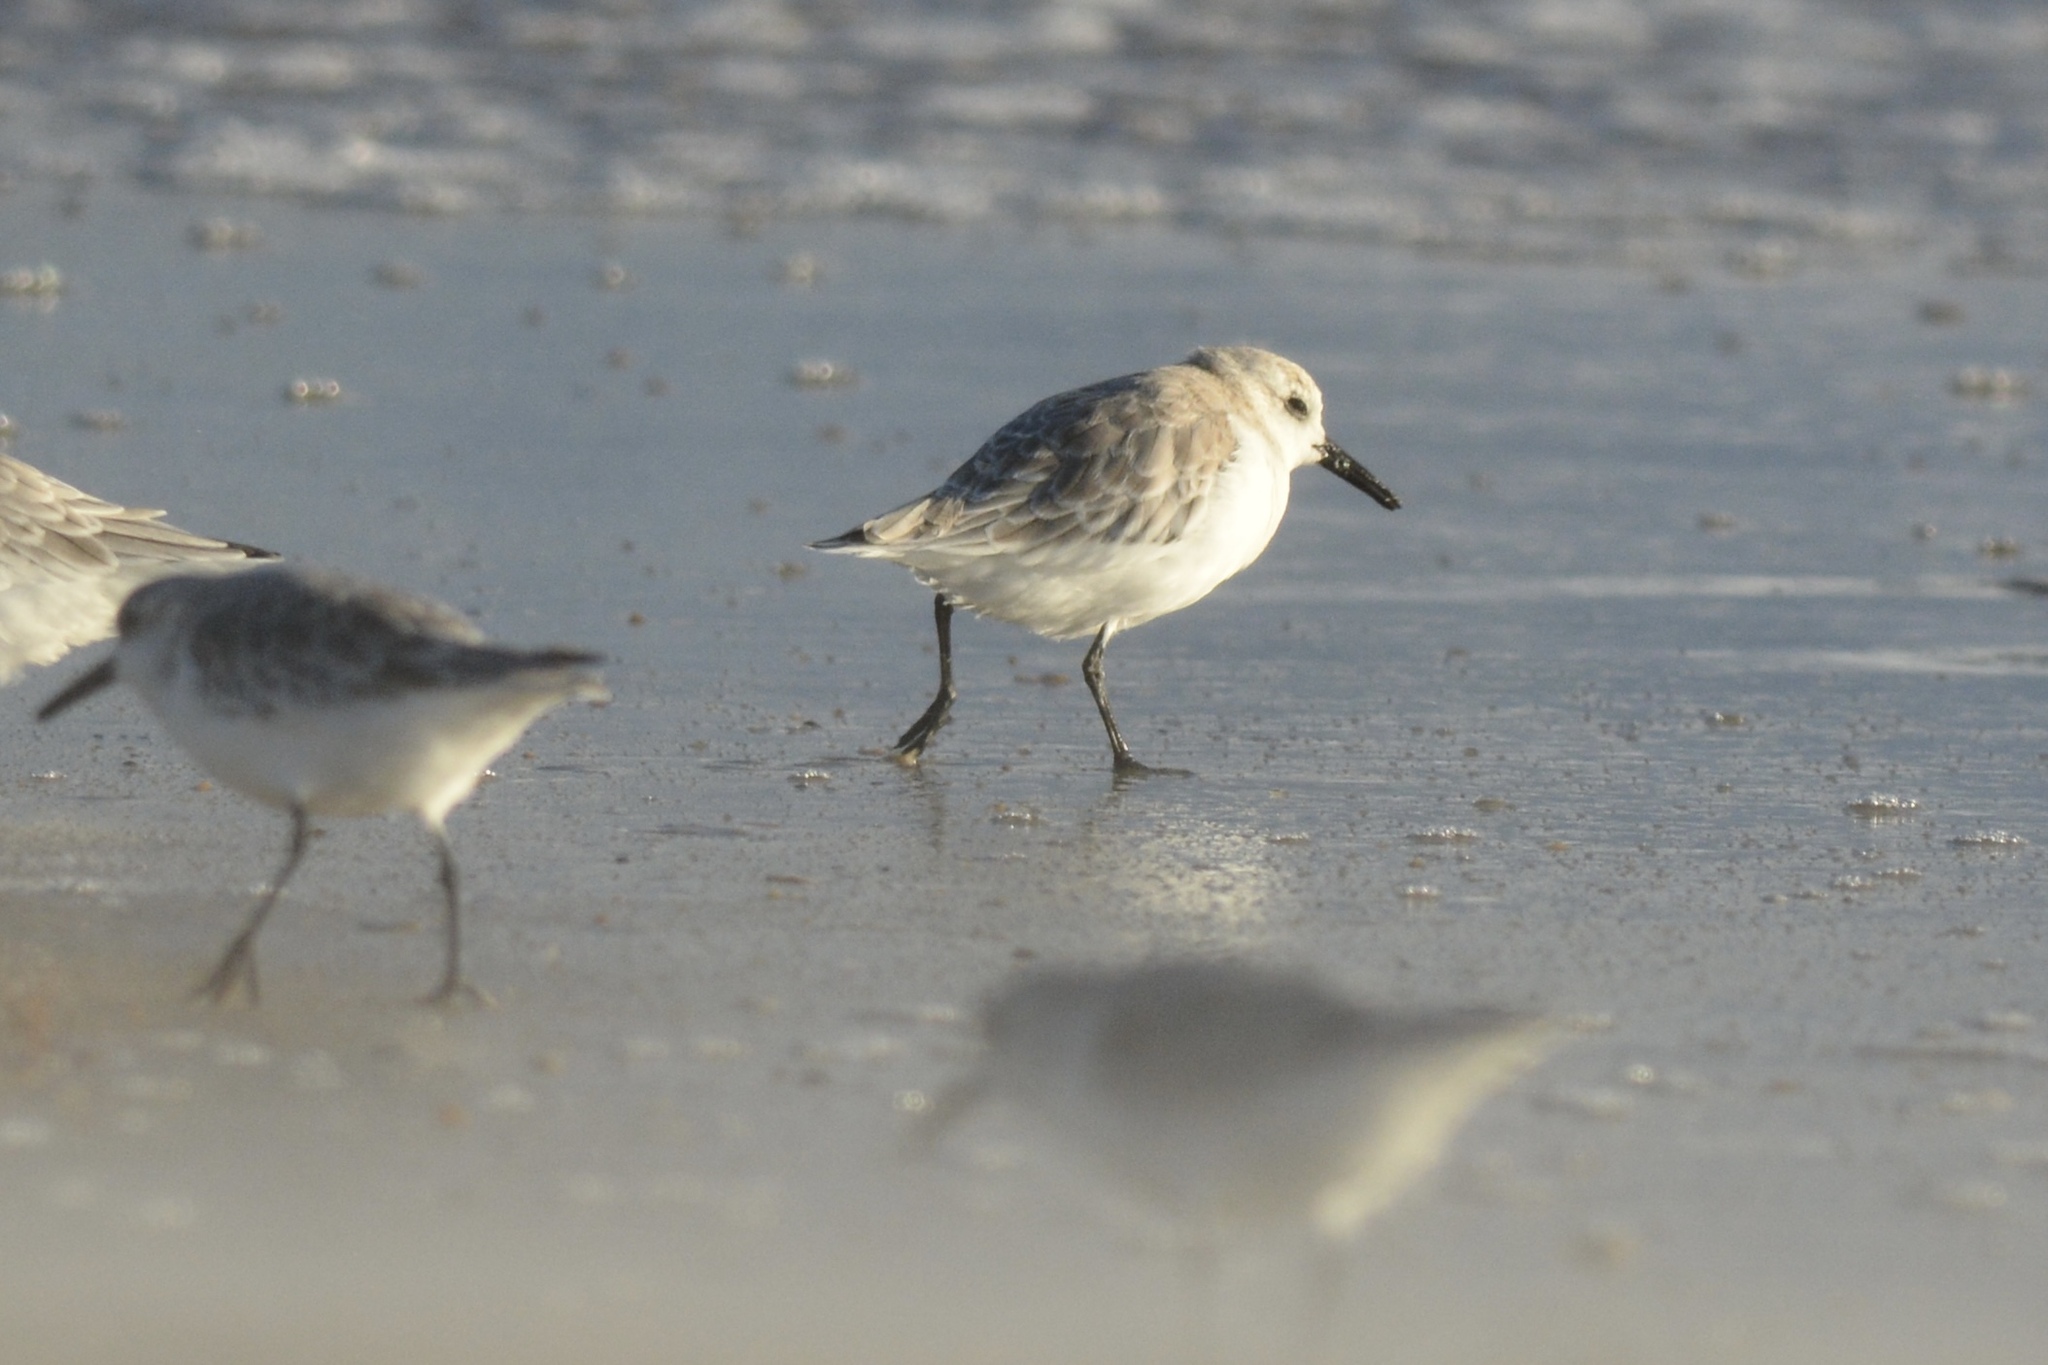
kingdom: Animalia
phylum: Chordata
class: Aves
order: Charadriiformes
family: Scolopacidae
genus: Calidris
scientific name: Calidris alba
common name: Sanderling
